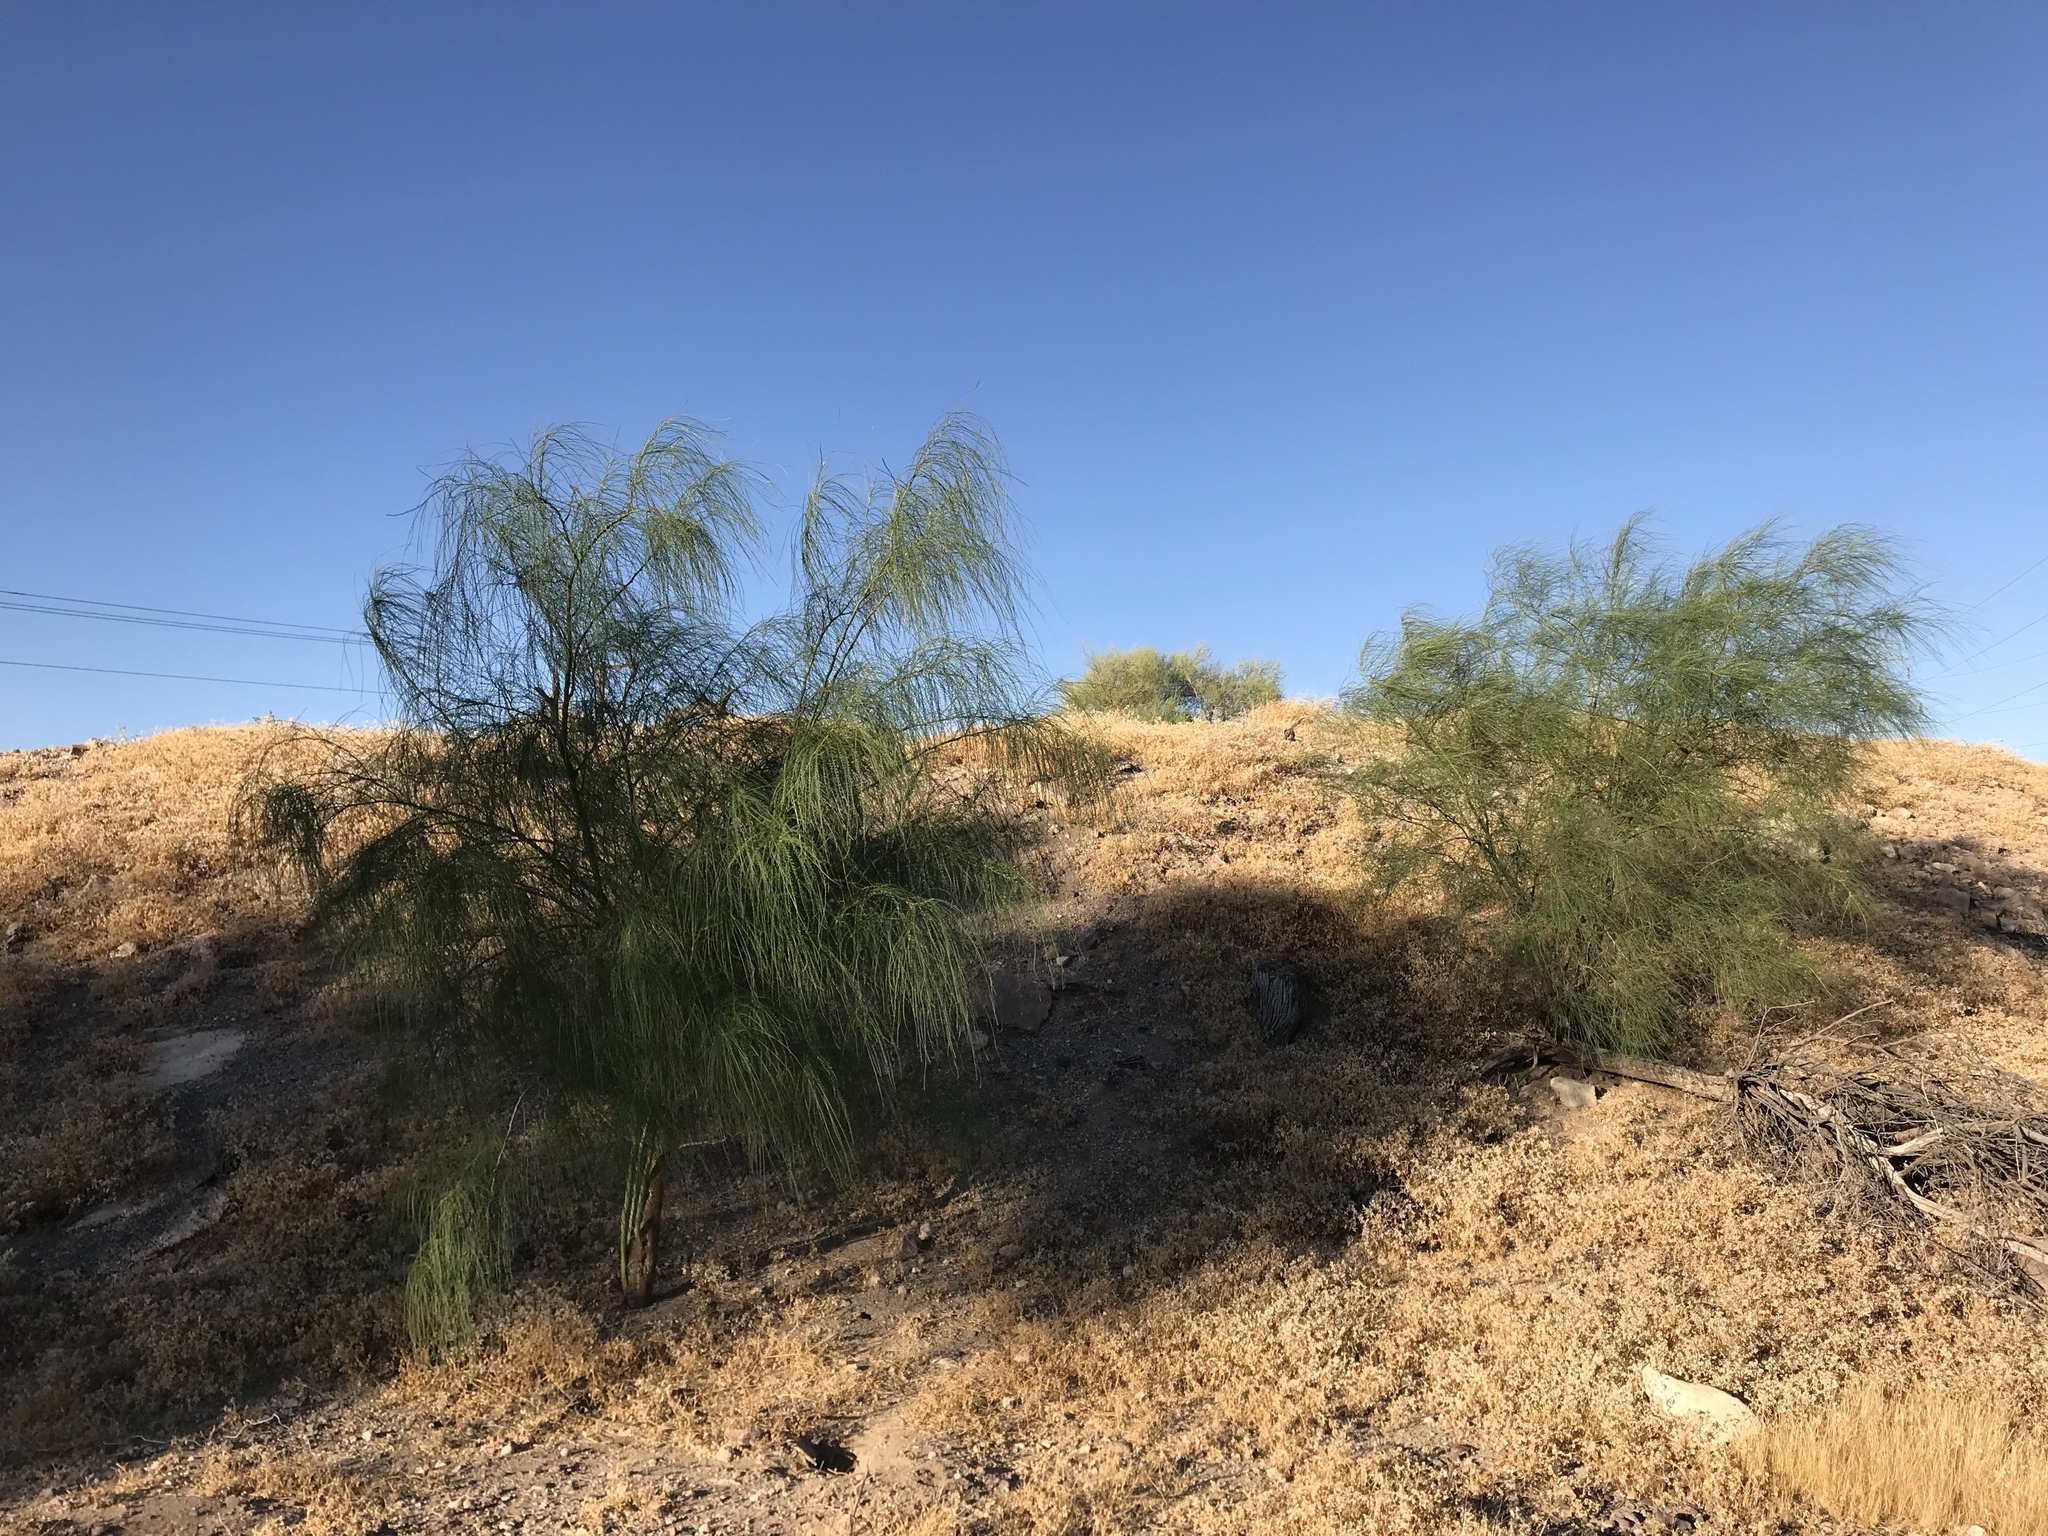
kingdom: Plantae
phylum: Tracheophyta
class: Magnoliopsida
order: Fabales
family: Fabaceae
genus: Parkinsonia
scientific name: Parkinsonia aculeata
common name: Jerusalem thorn
